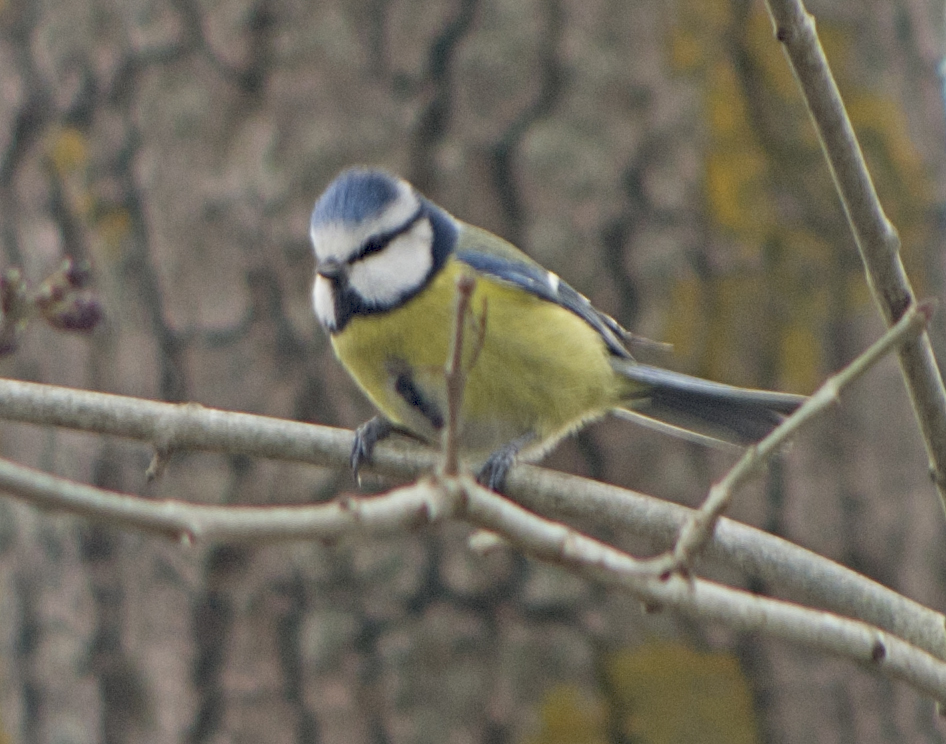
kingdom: Animalia
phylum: Chordata
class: Aves
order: Passeriformes
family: Paridae
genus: Cyanistes
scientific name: Cyanistes caeruleus
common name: Eurasian blue tit
